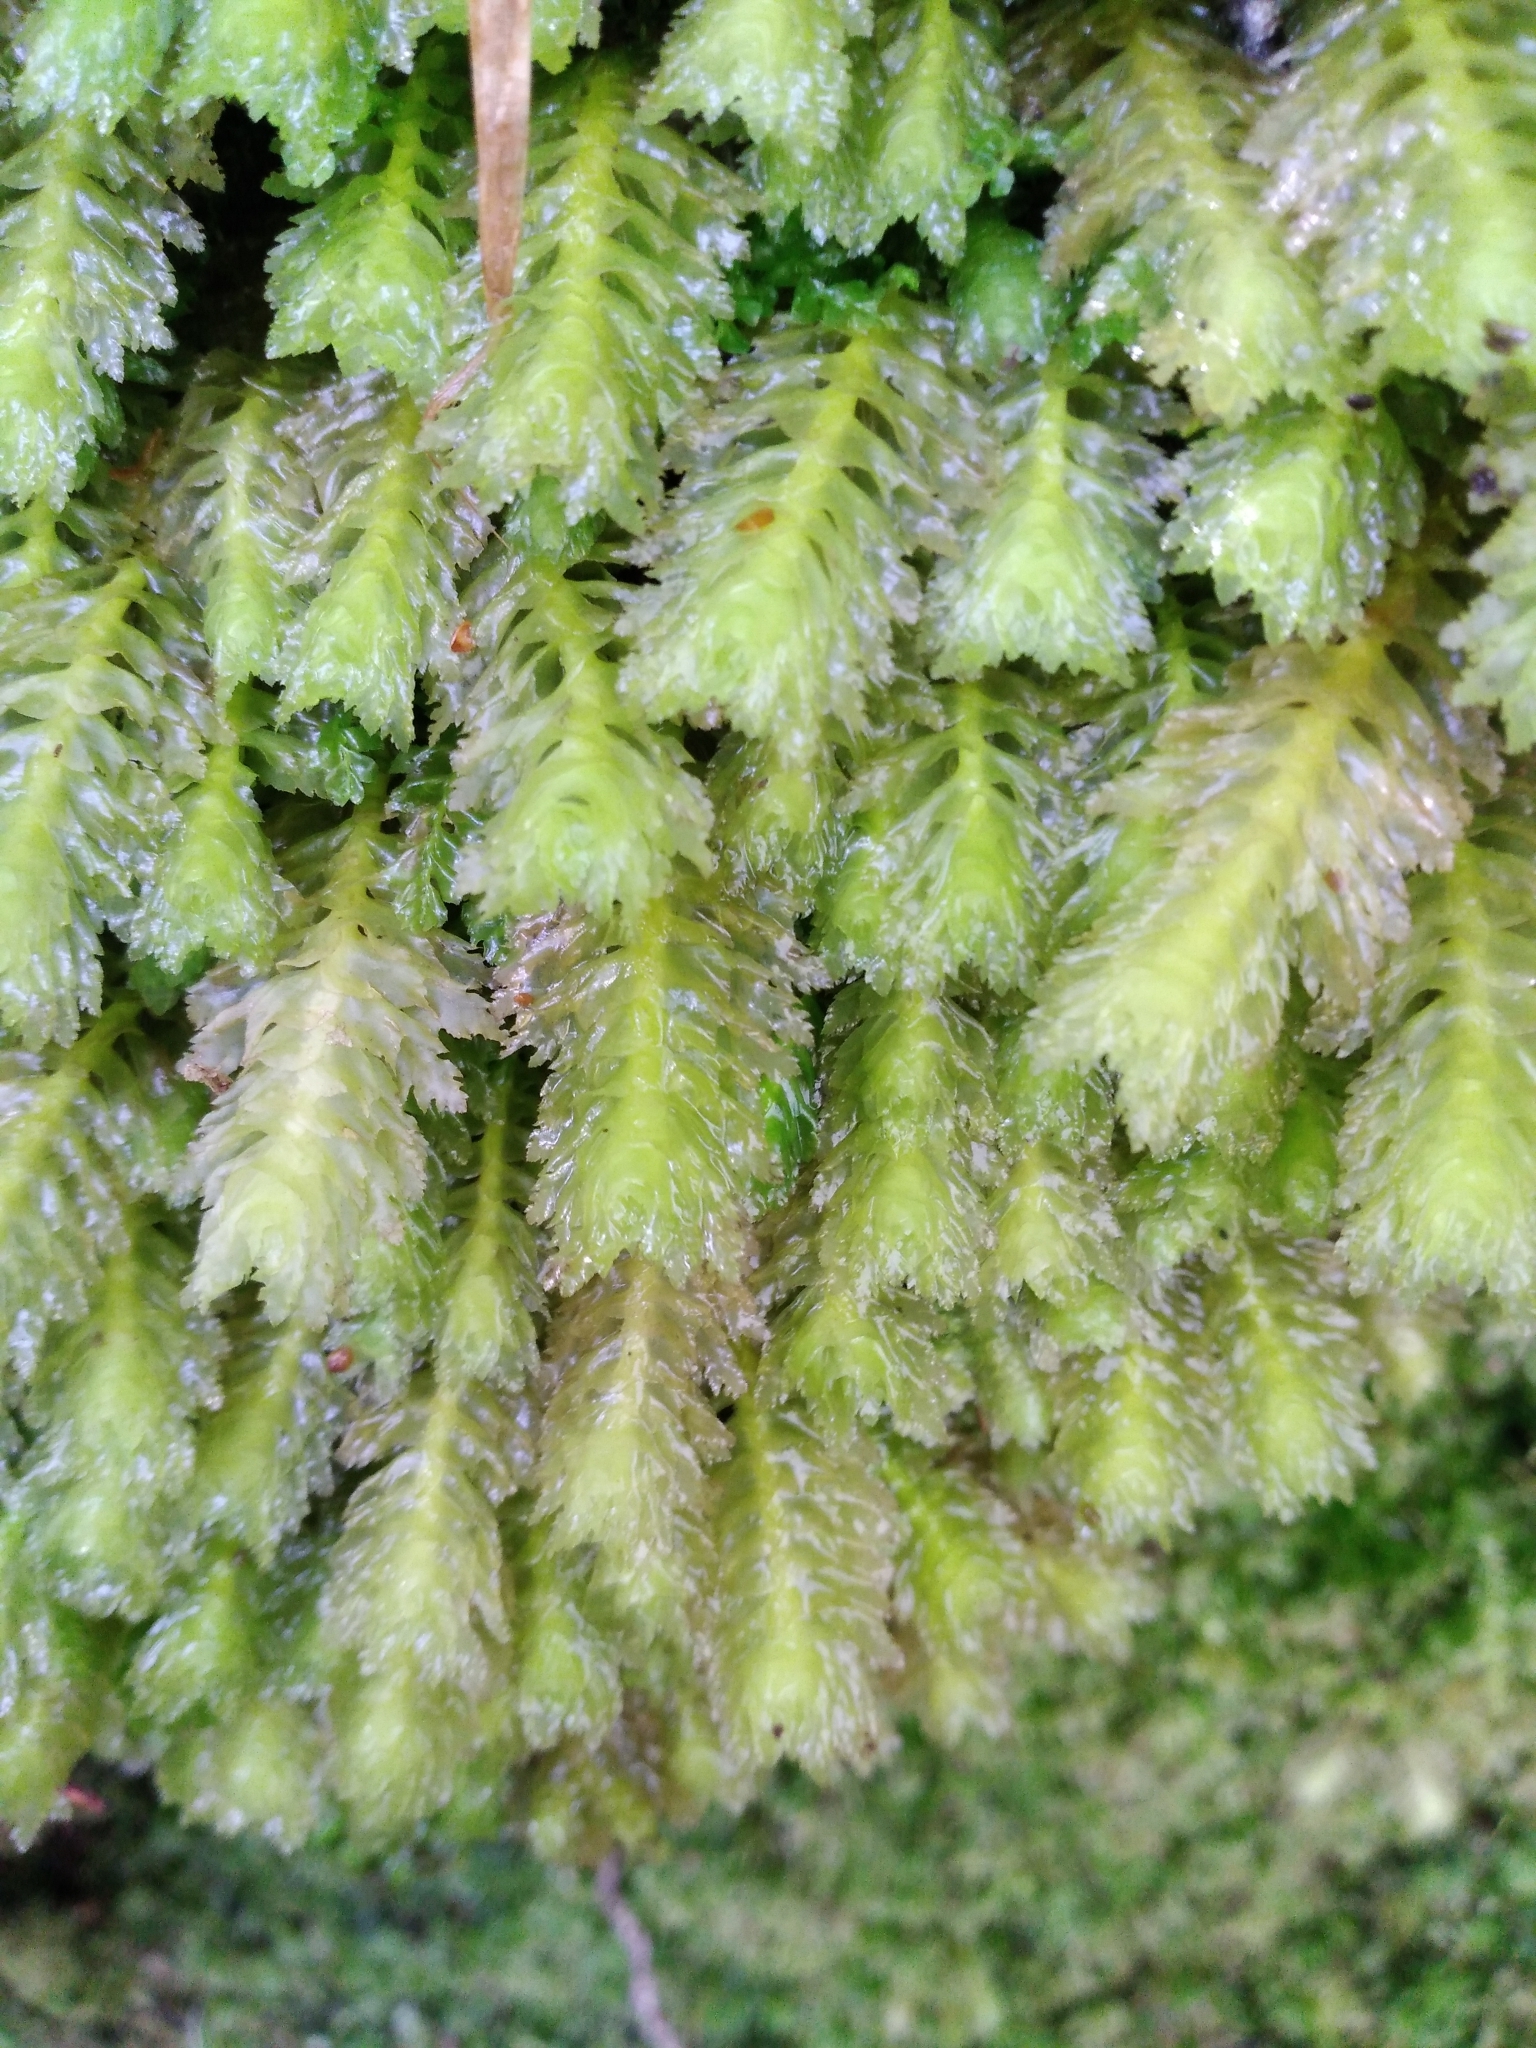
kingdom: Plantae
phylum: Marchantiophyta
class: Jungermanniopsida
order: Jungermanniales
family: Schistochilaceae
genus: Schistochila
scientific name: Schistochila appendiculata
